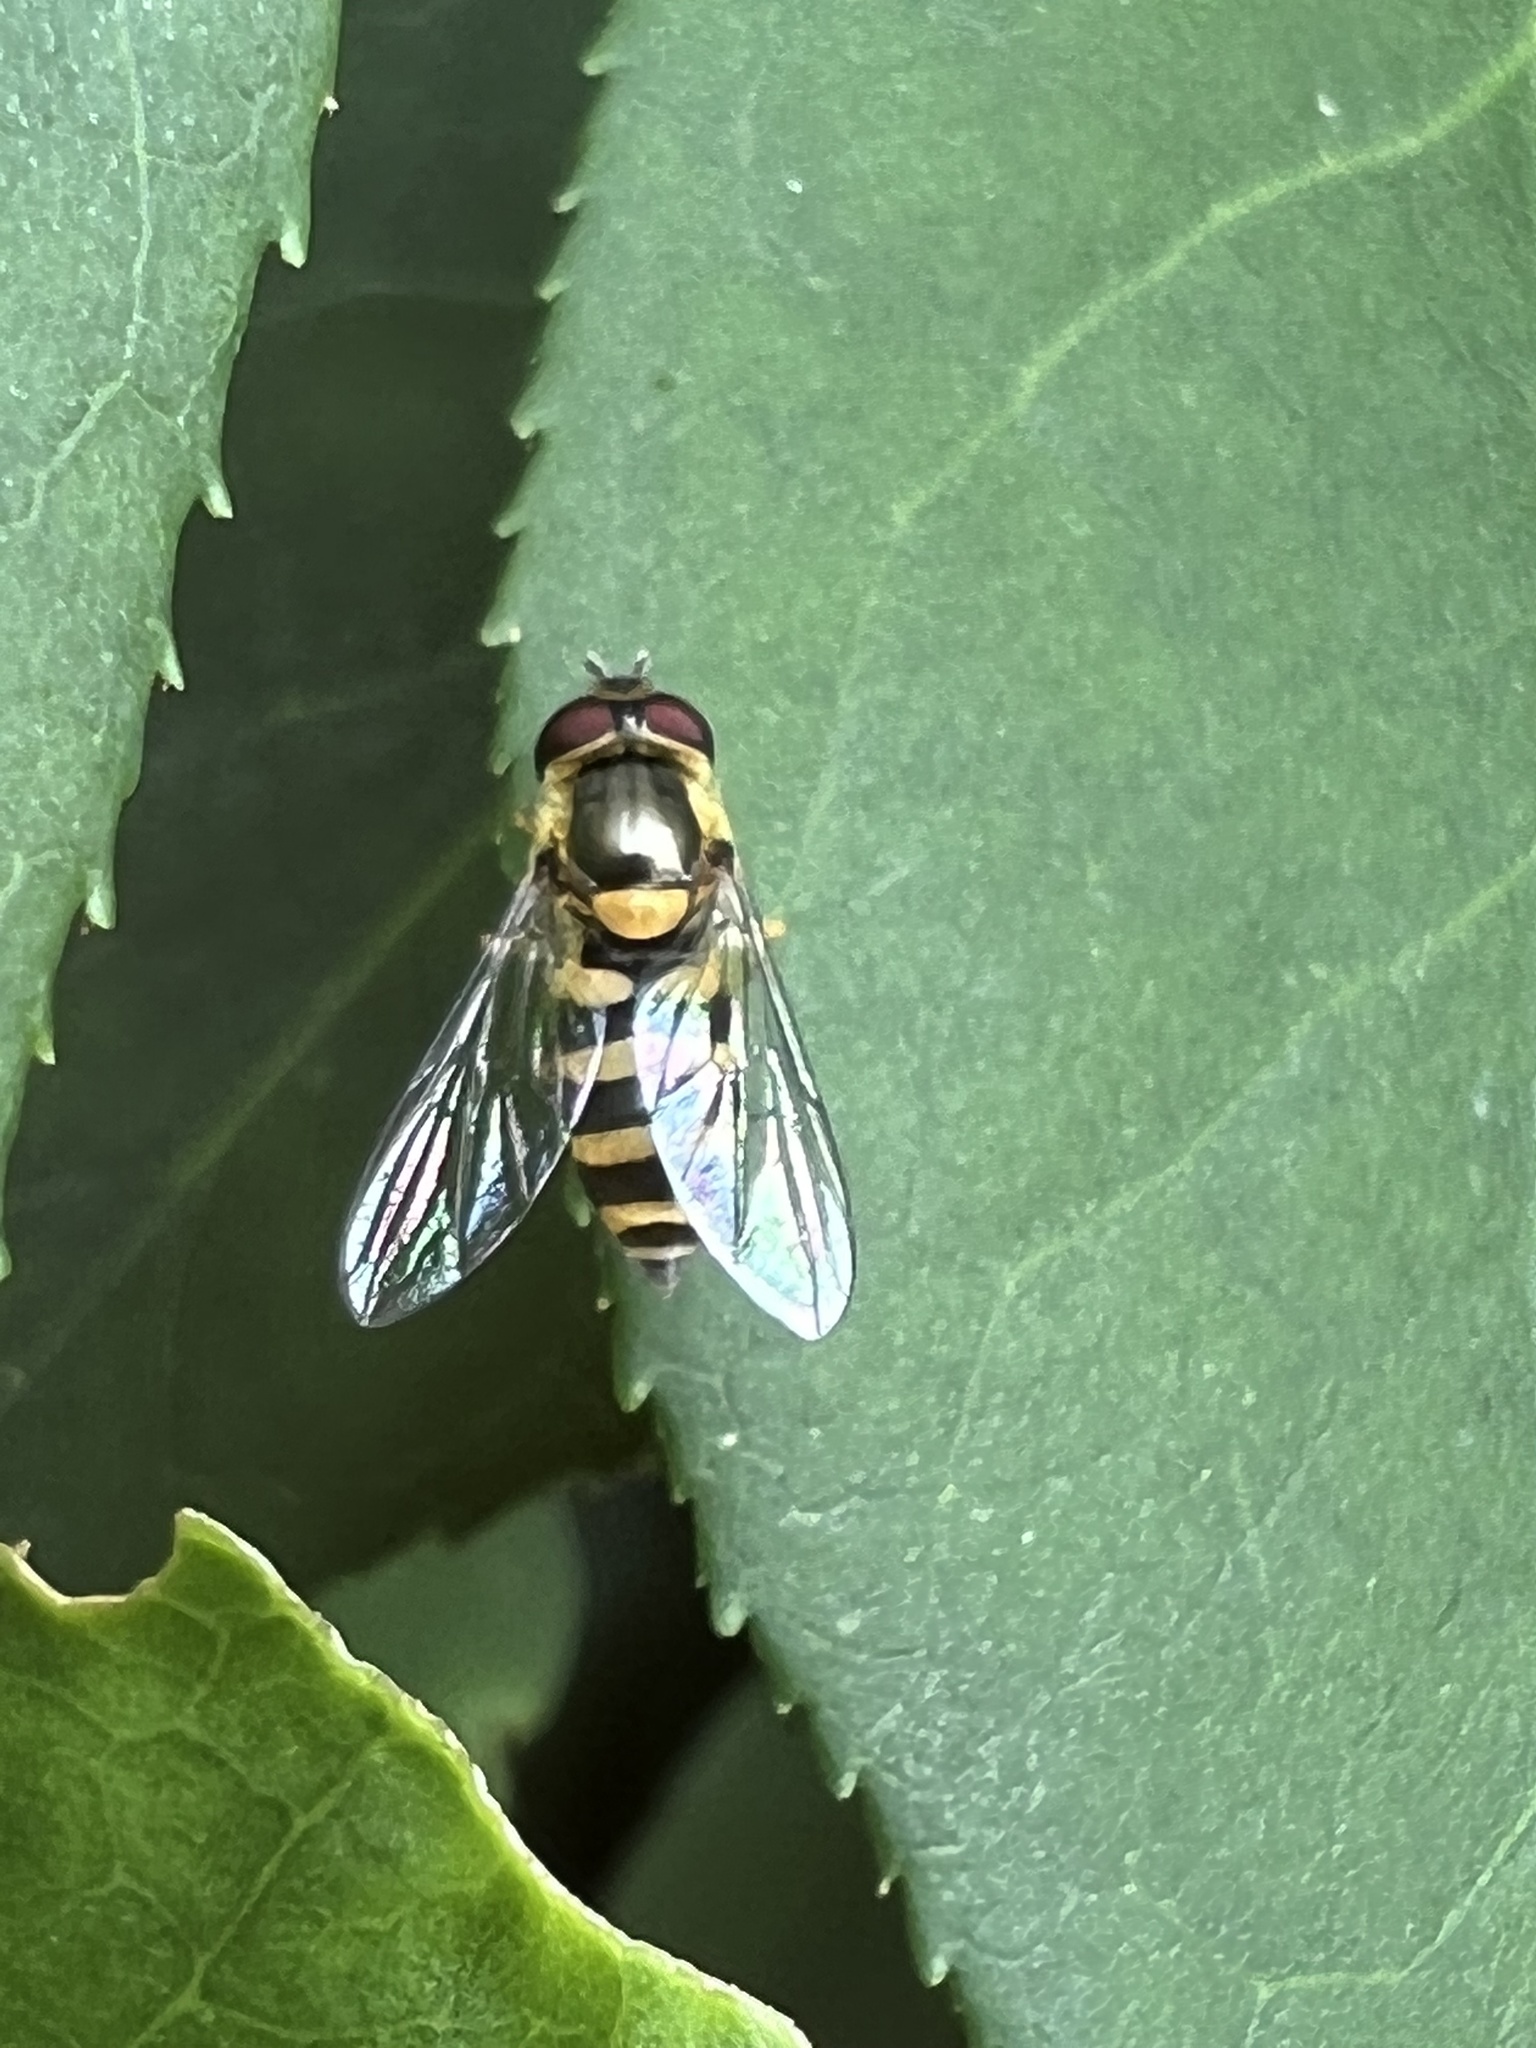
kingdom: Animalia
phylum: Arthropoda
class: Insecta
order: Diptera
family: Syrphidae
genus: Syrphus
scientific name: Syrphus
